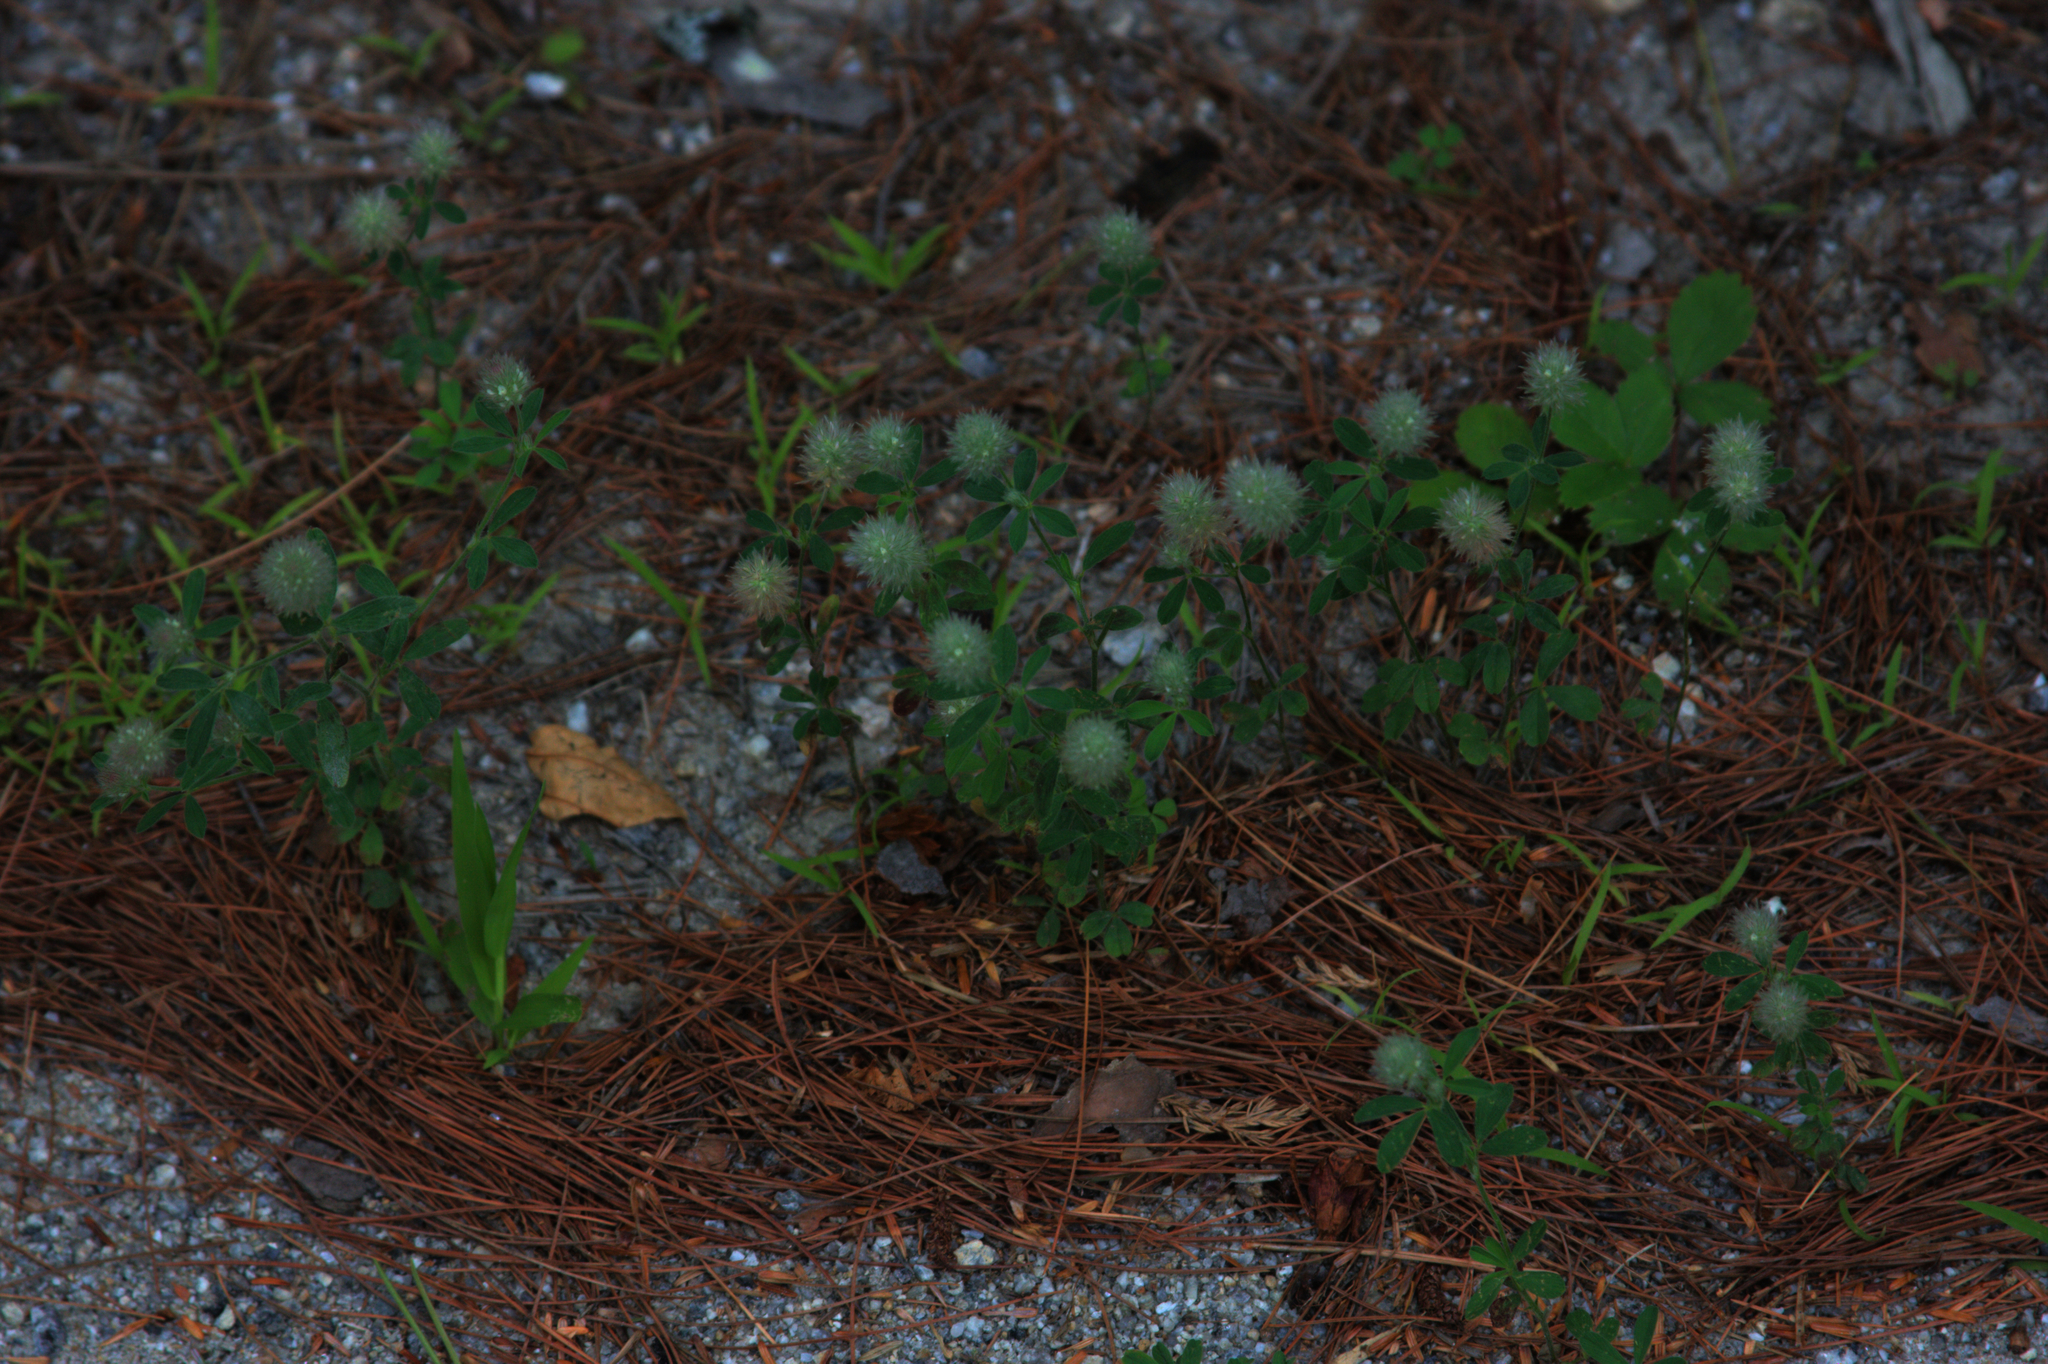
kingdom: Plantae
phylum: Tracheophyta
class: Magnoliopsida
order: Fabales
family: Fabaceae
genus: Trifolium
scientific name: Trifolium arvense
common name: Hare's-foot clover
